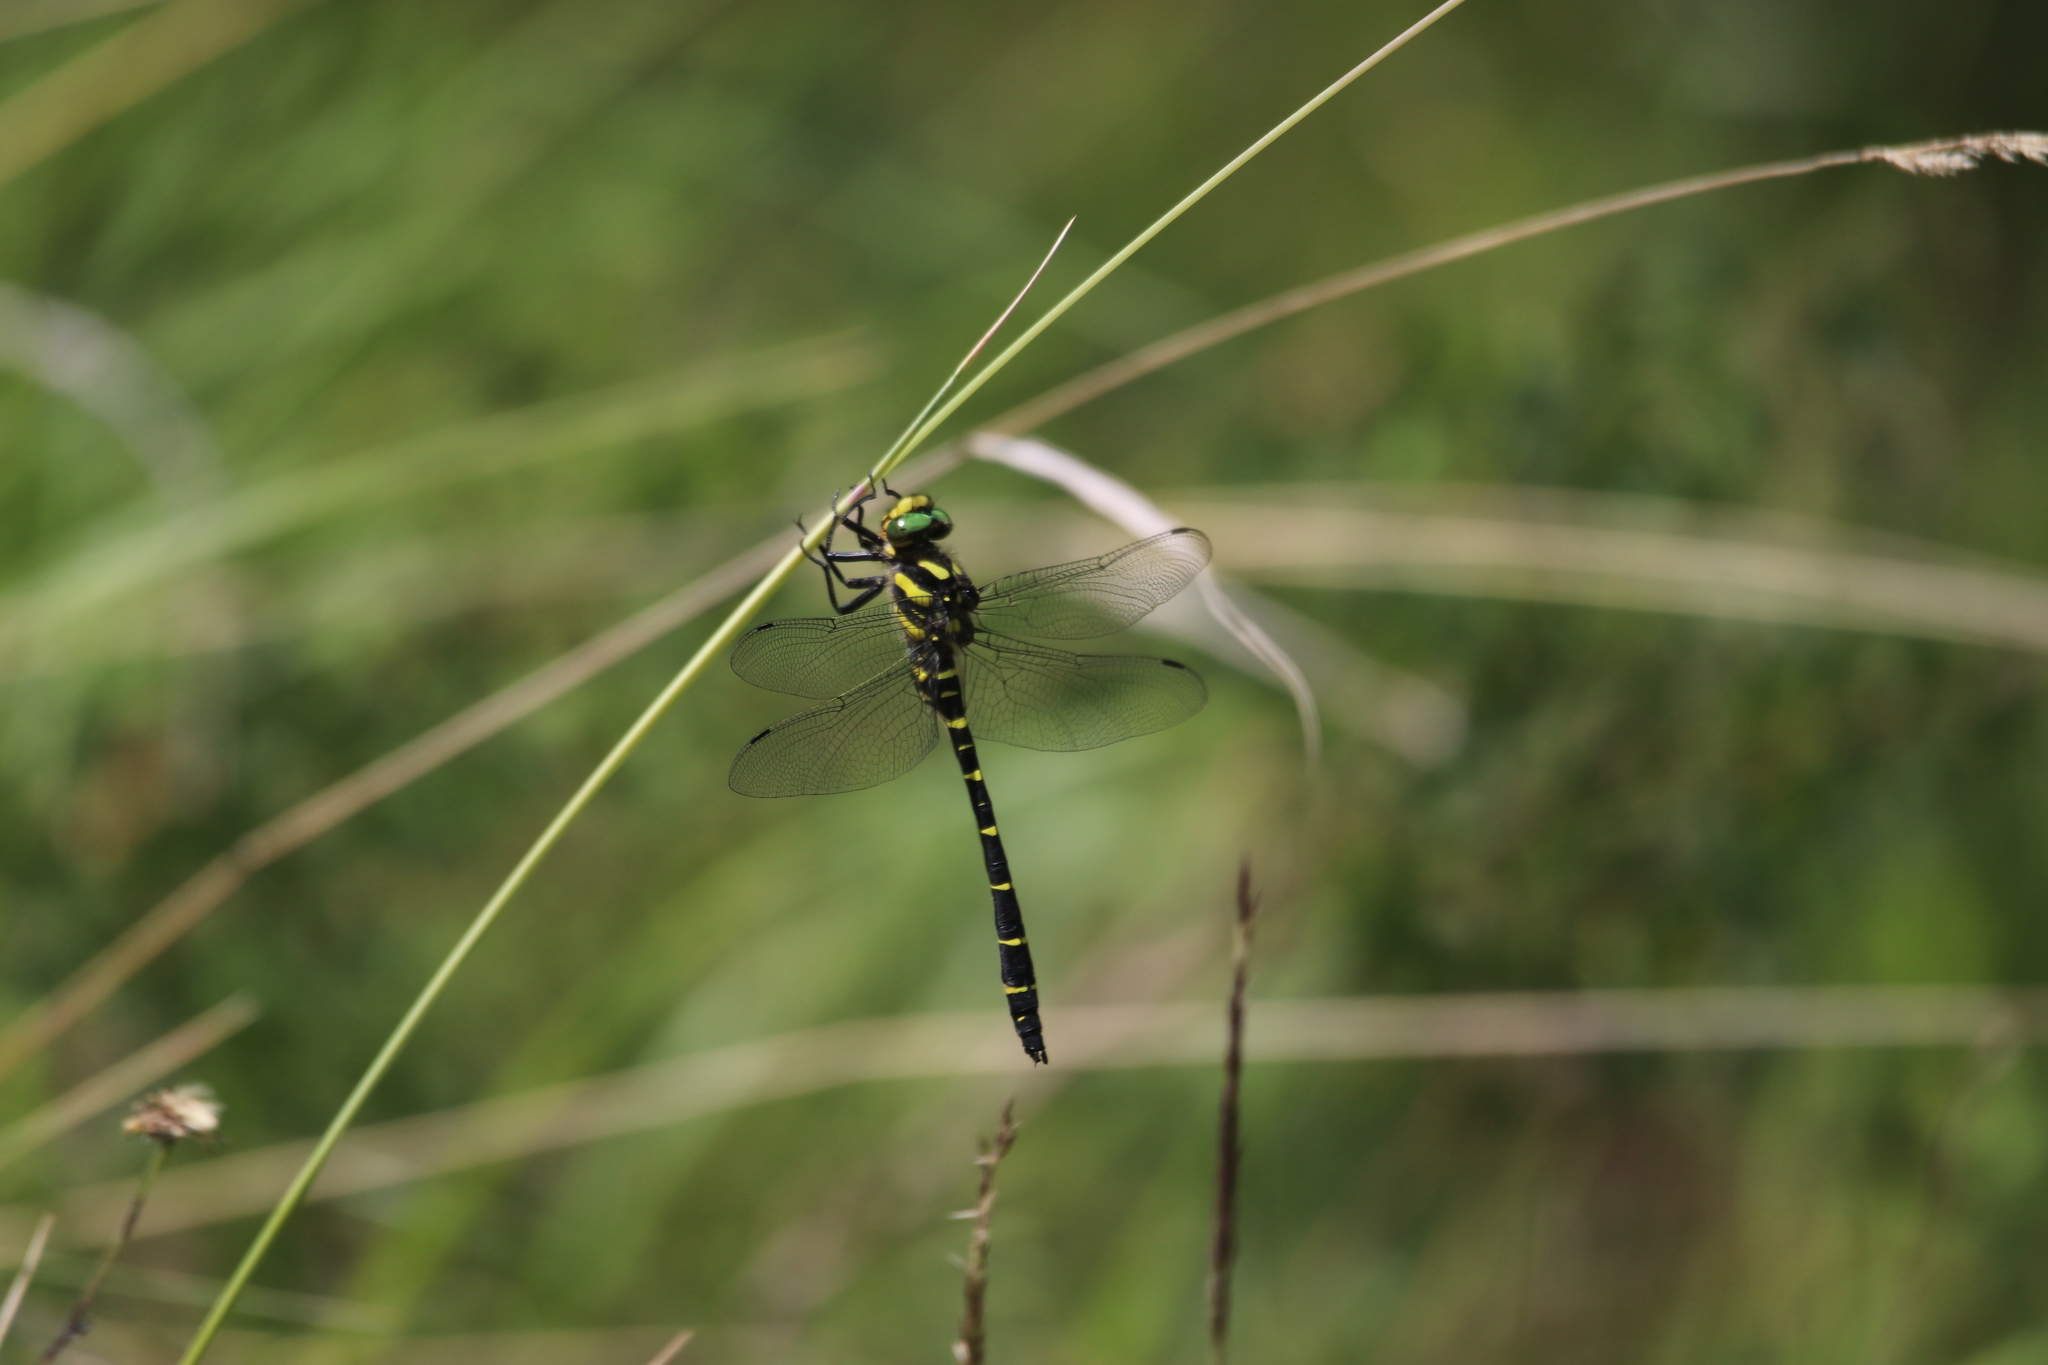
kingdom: Animalia
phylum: Arthropoda
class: Insecta
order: Odonata
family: Cordulegastridae
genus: Cordulegaster
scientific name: Cordulegaster bidentata
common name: Sombre goldenring
